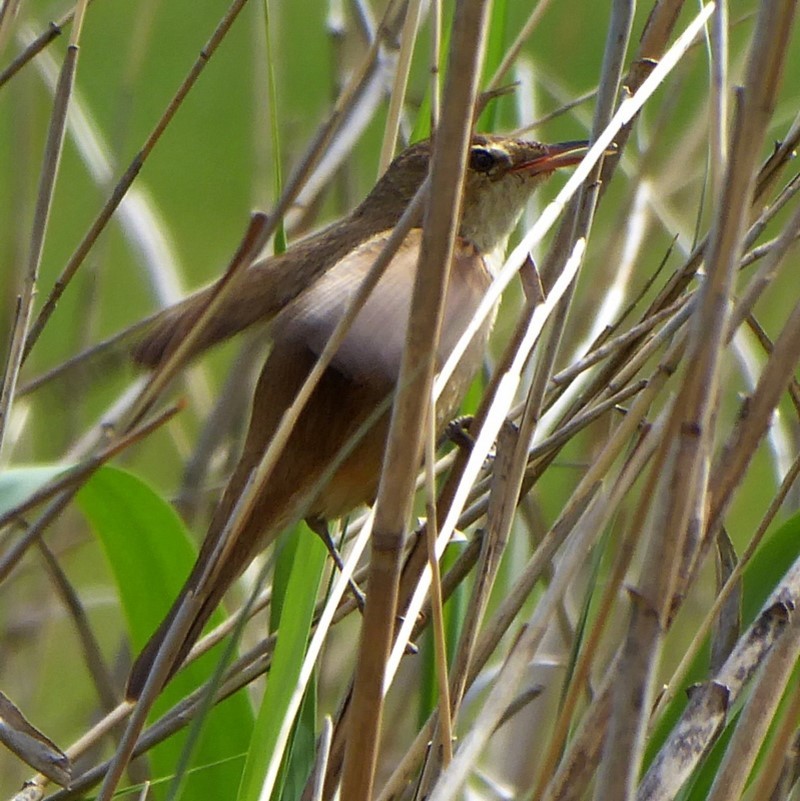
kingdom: Animalia
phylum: Chordata
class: Aves
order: Passeriformes
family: Acrocephalidae
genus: Acrocephalus
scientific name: Acrocephalus australis
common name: Australian reed warbler
